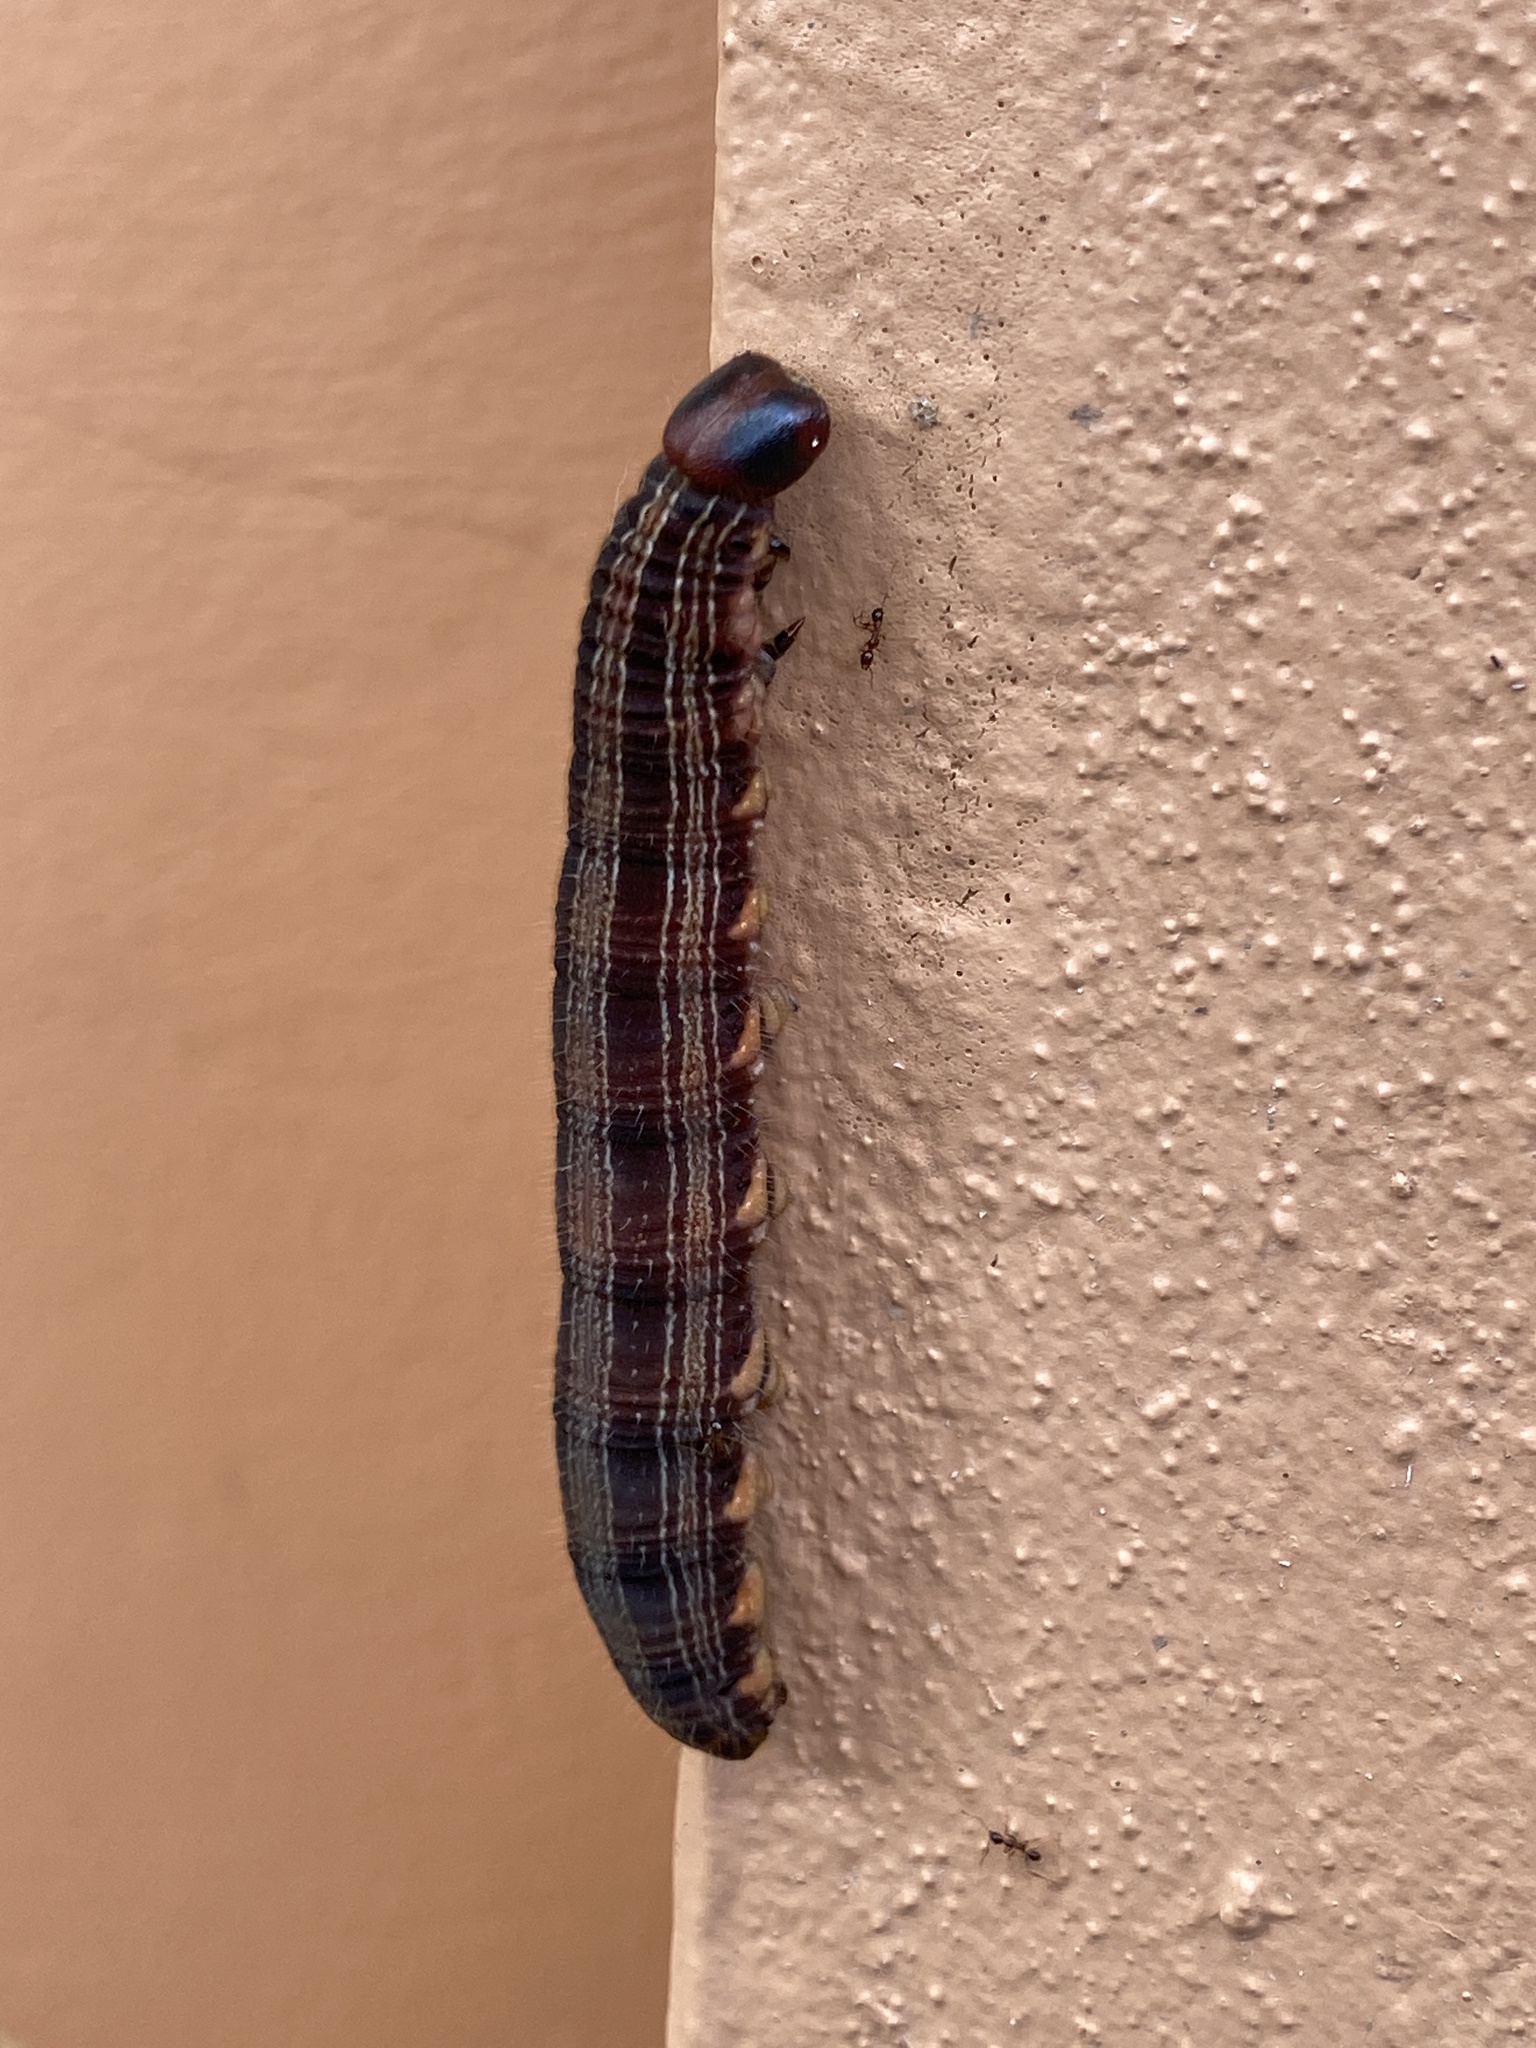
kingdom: Animalia
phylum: Arthropoda
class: Insecta
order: Lepidoptera
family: Nymphalidae
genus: Brassolis
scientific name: Brassolis sophorae
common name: Coconut caterpillar
